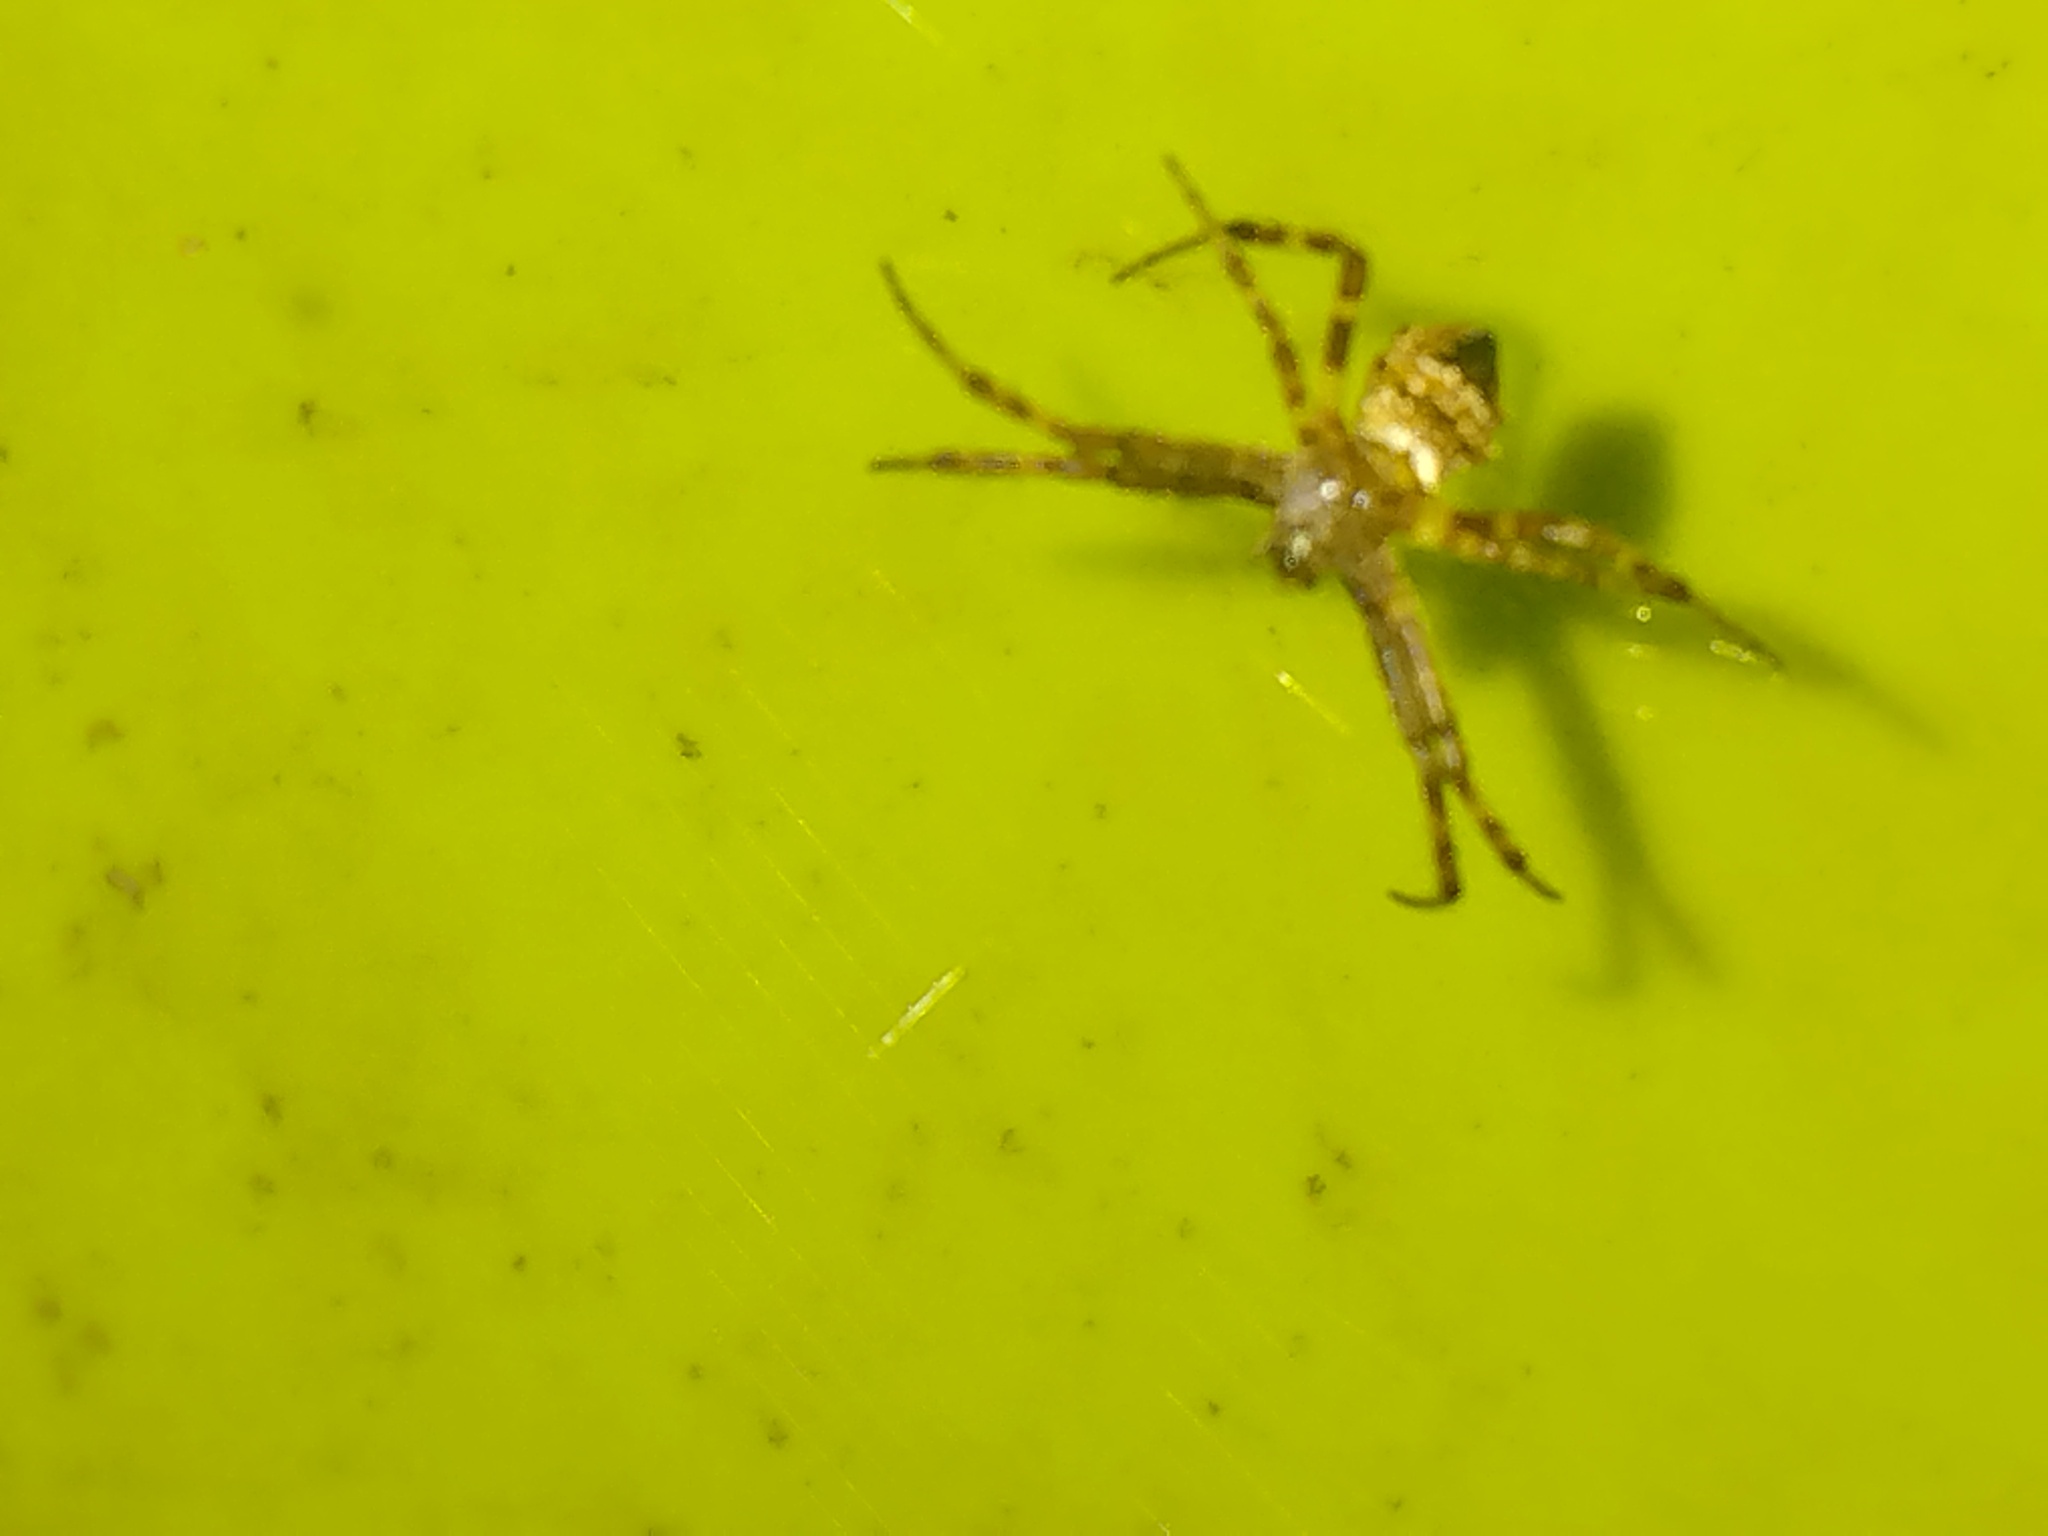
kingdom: Animalia
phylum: Arthropoda
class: Arachnida
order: Araneae
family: Araneidae
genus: Gea
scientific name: Gea heptagon
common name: Orb weavers
